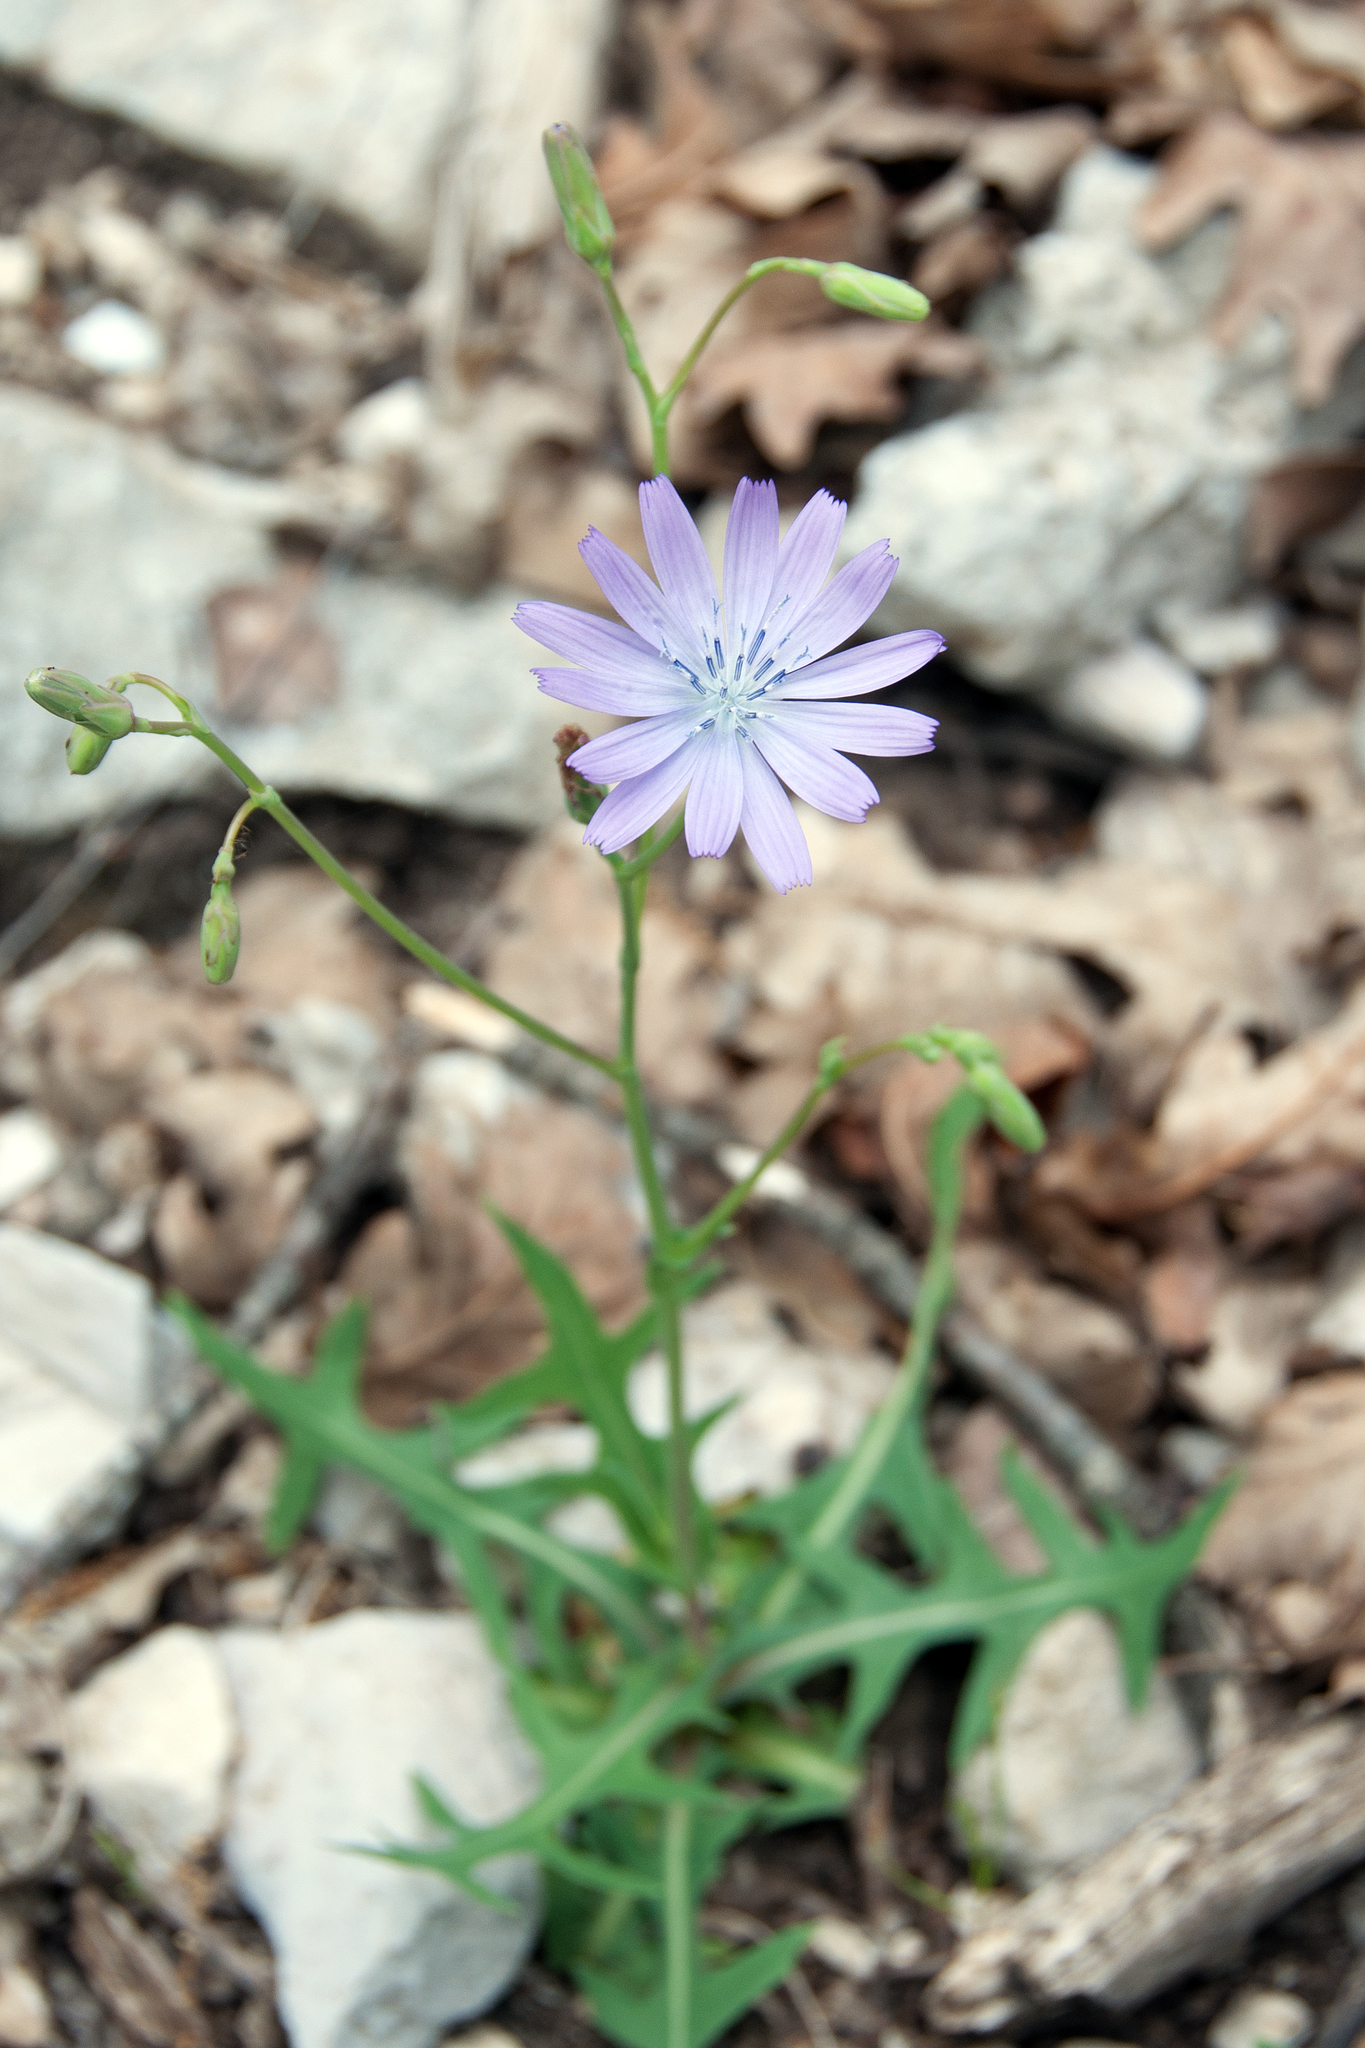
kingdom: Plantae
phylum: Tracheophyta
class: Magnoliopsida
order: Asterales
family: Asteraceae
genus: Lactuca
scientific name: Lactuca perennis
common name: Mountain lettuce
